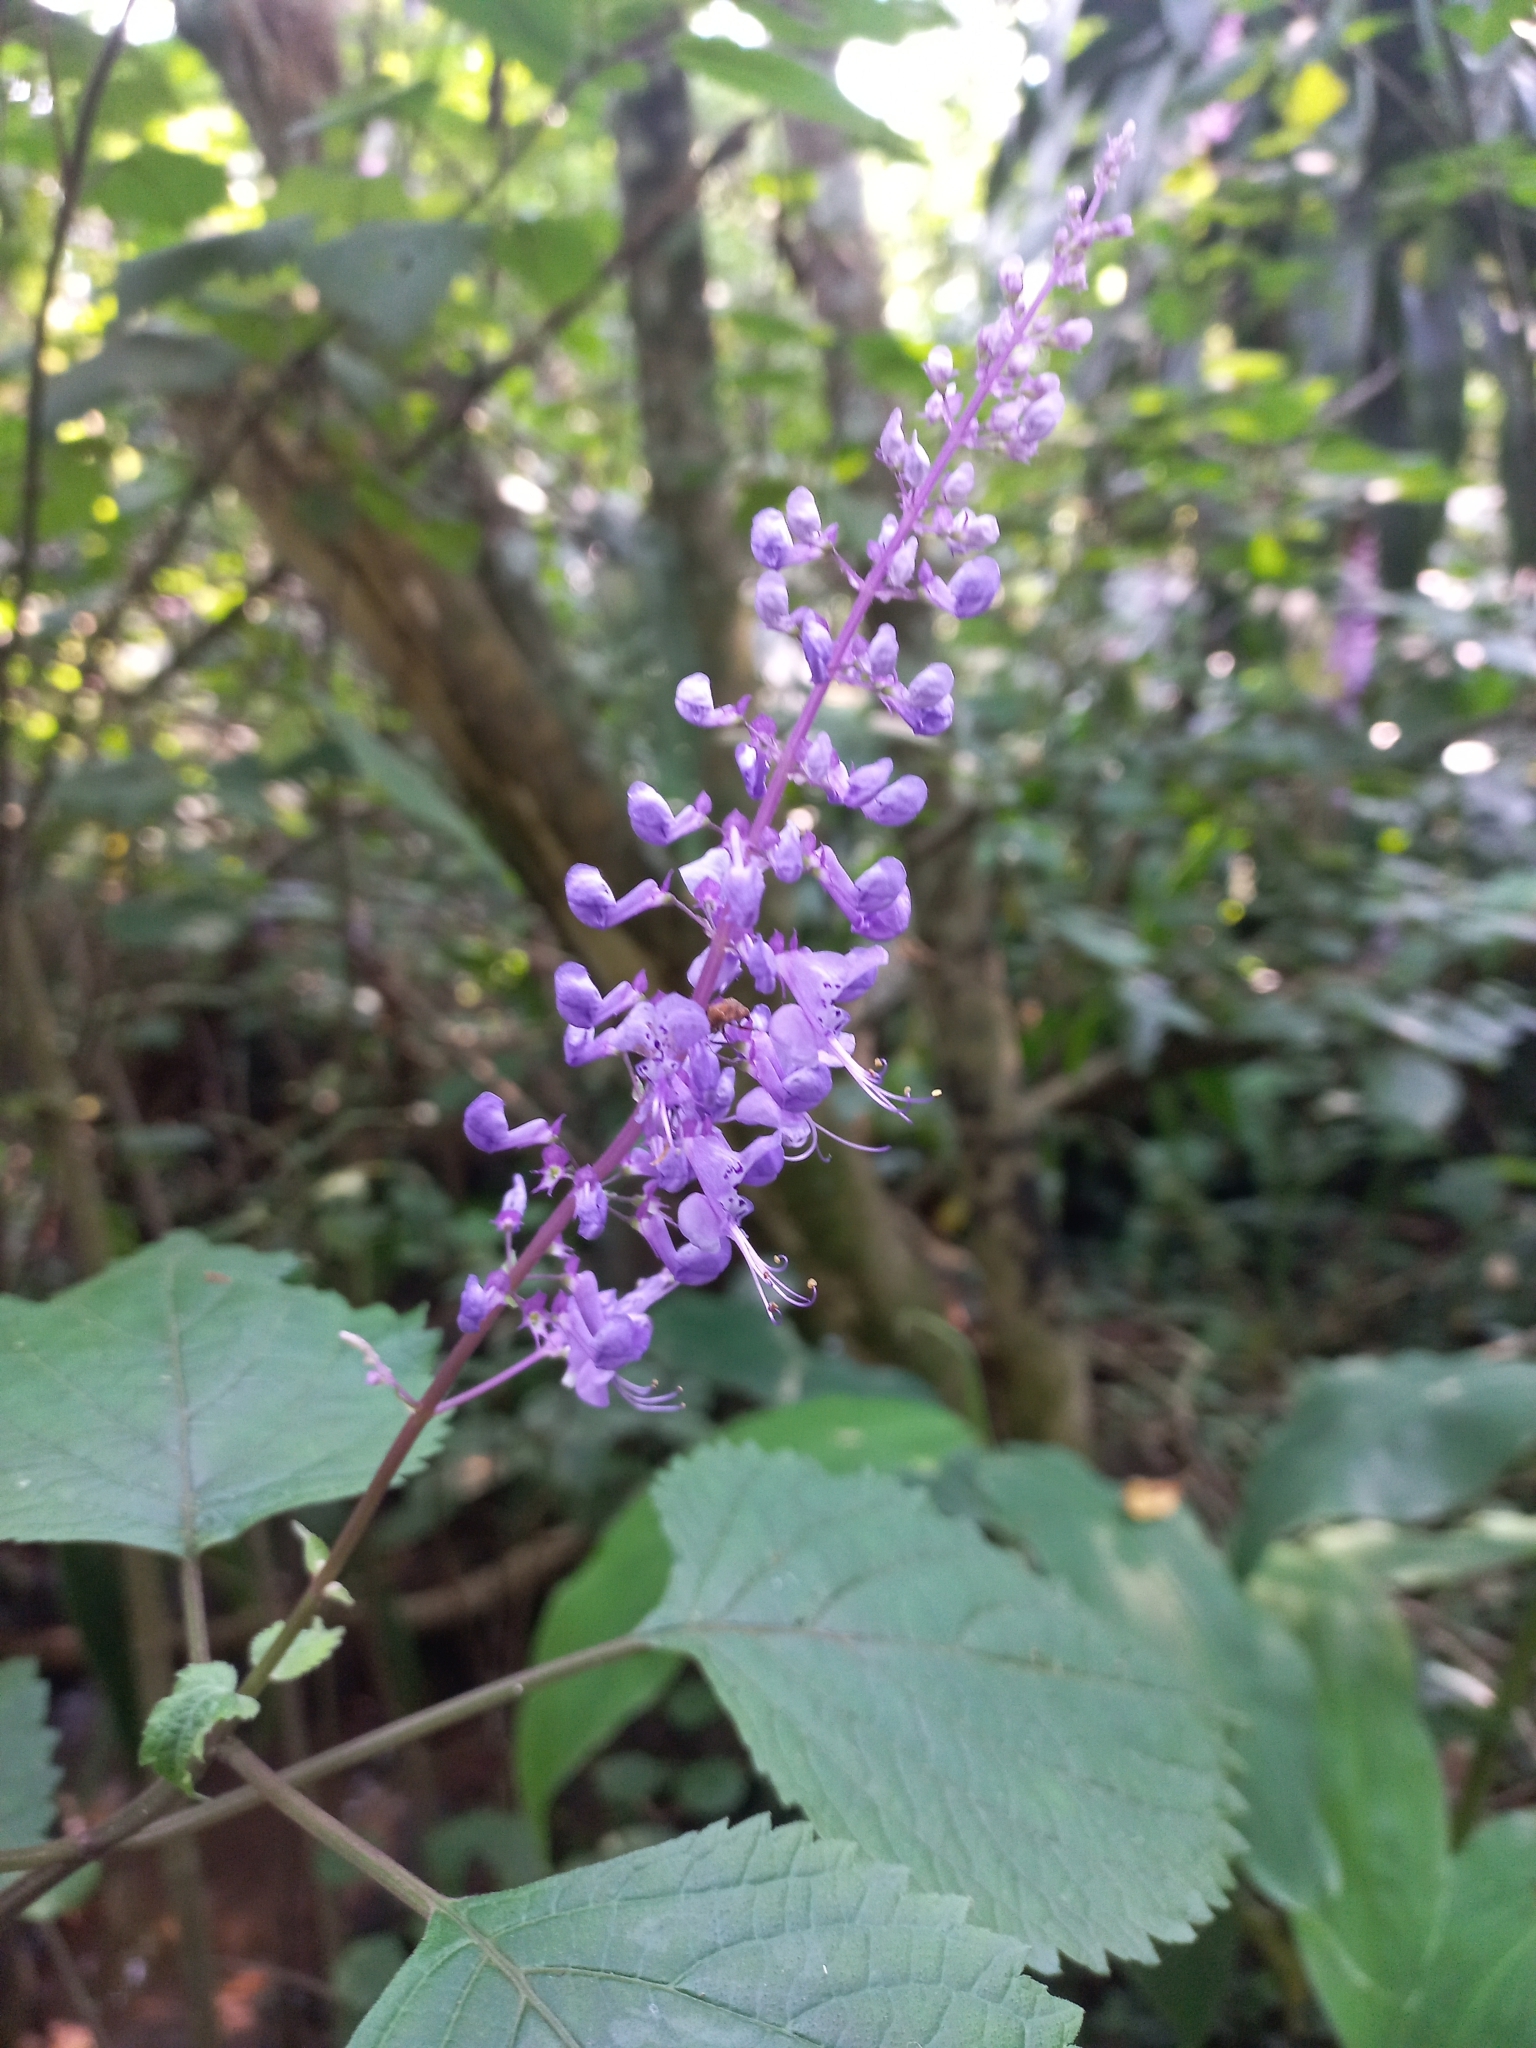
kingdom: Plantae
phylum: Tracheophyta
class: Magnoliopsida
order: Lamiales
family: Lamiaceae
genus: Plectranthus
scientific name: Plectranthus fruticosus
